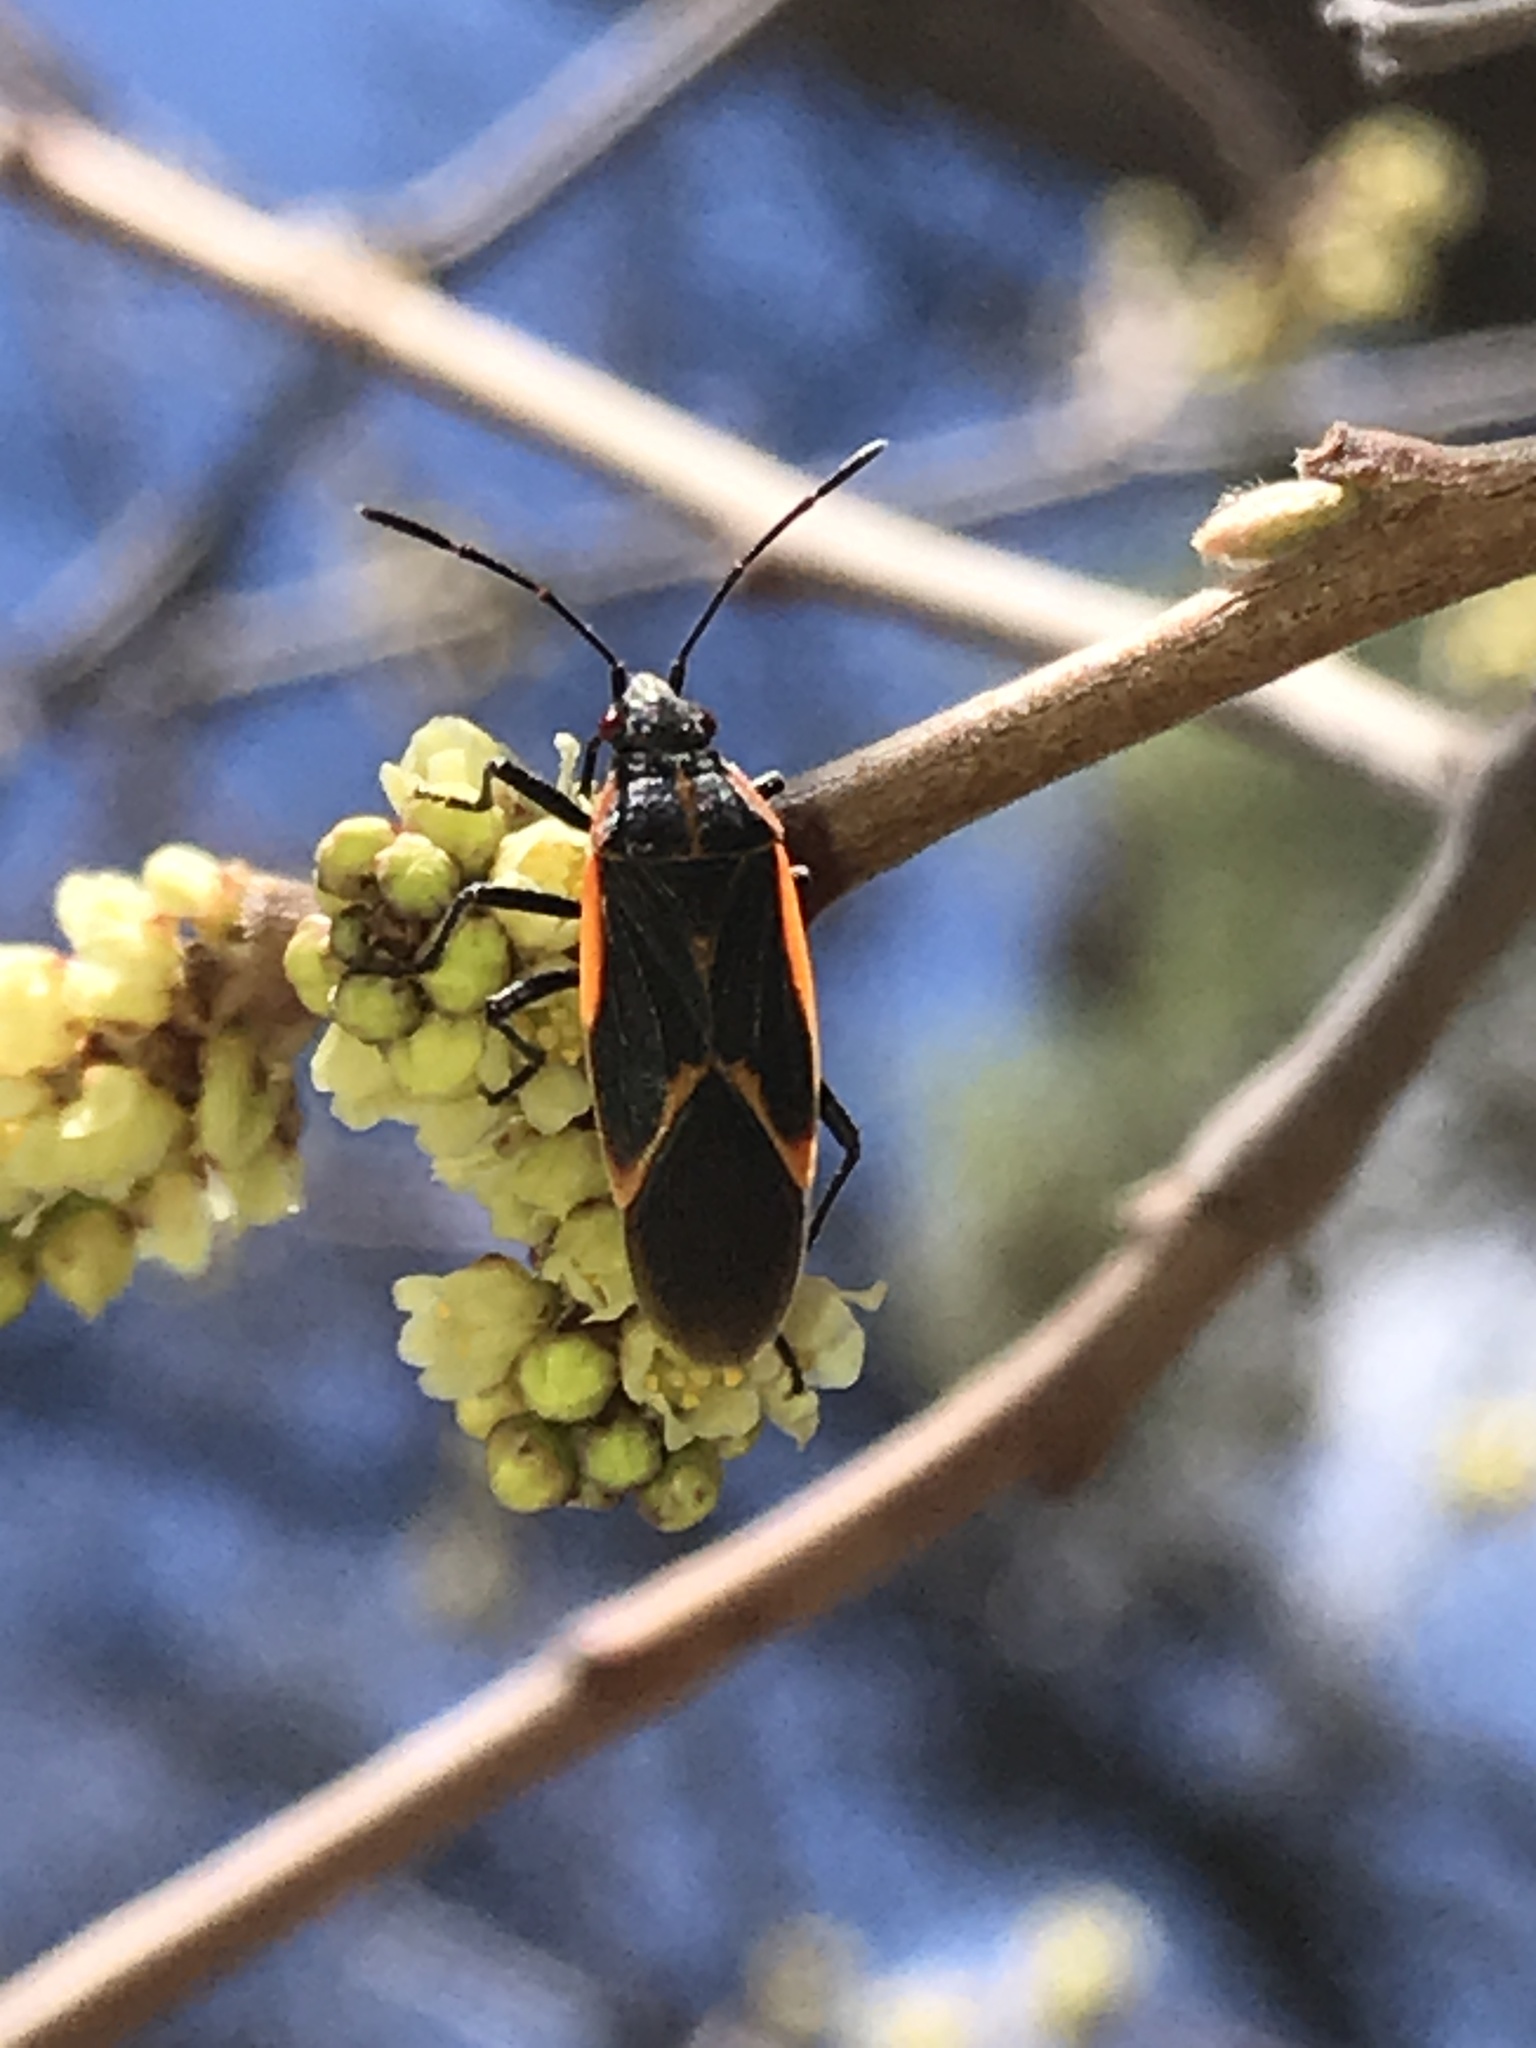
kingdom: Animalia
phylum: Arthropoda
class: Insecta
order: Hemiptera
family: Rhopalidae
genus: Boisea
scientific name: Boisea trivittata
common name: Boxelder bug
